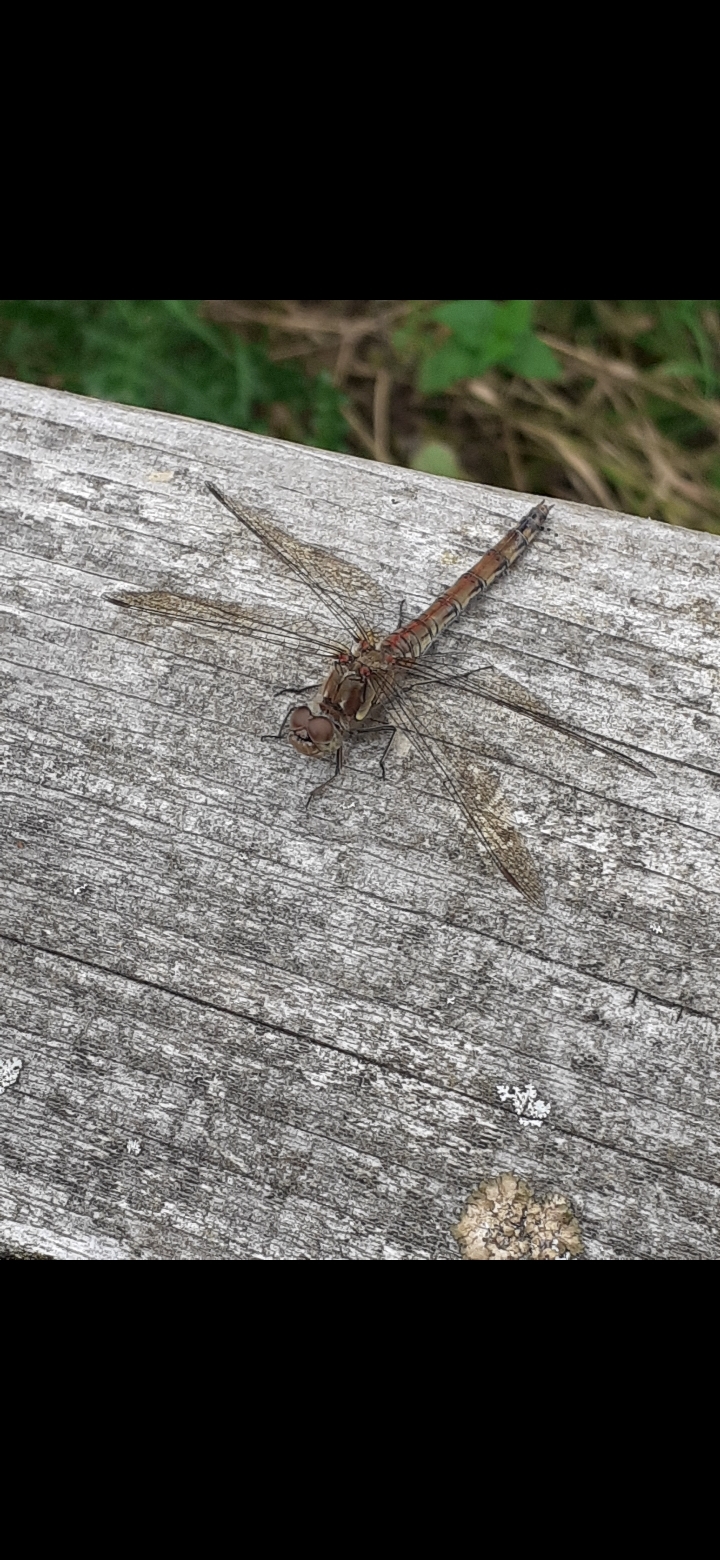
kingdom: Animalia
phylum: Arthropoda
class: Insecta
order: Odonata
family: Libellulidae
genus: Sympetrum
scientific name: Sympetrum striolatum
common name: Common darter
